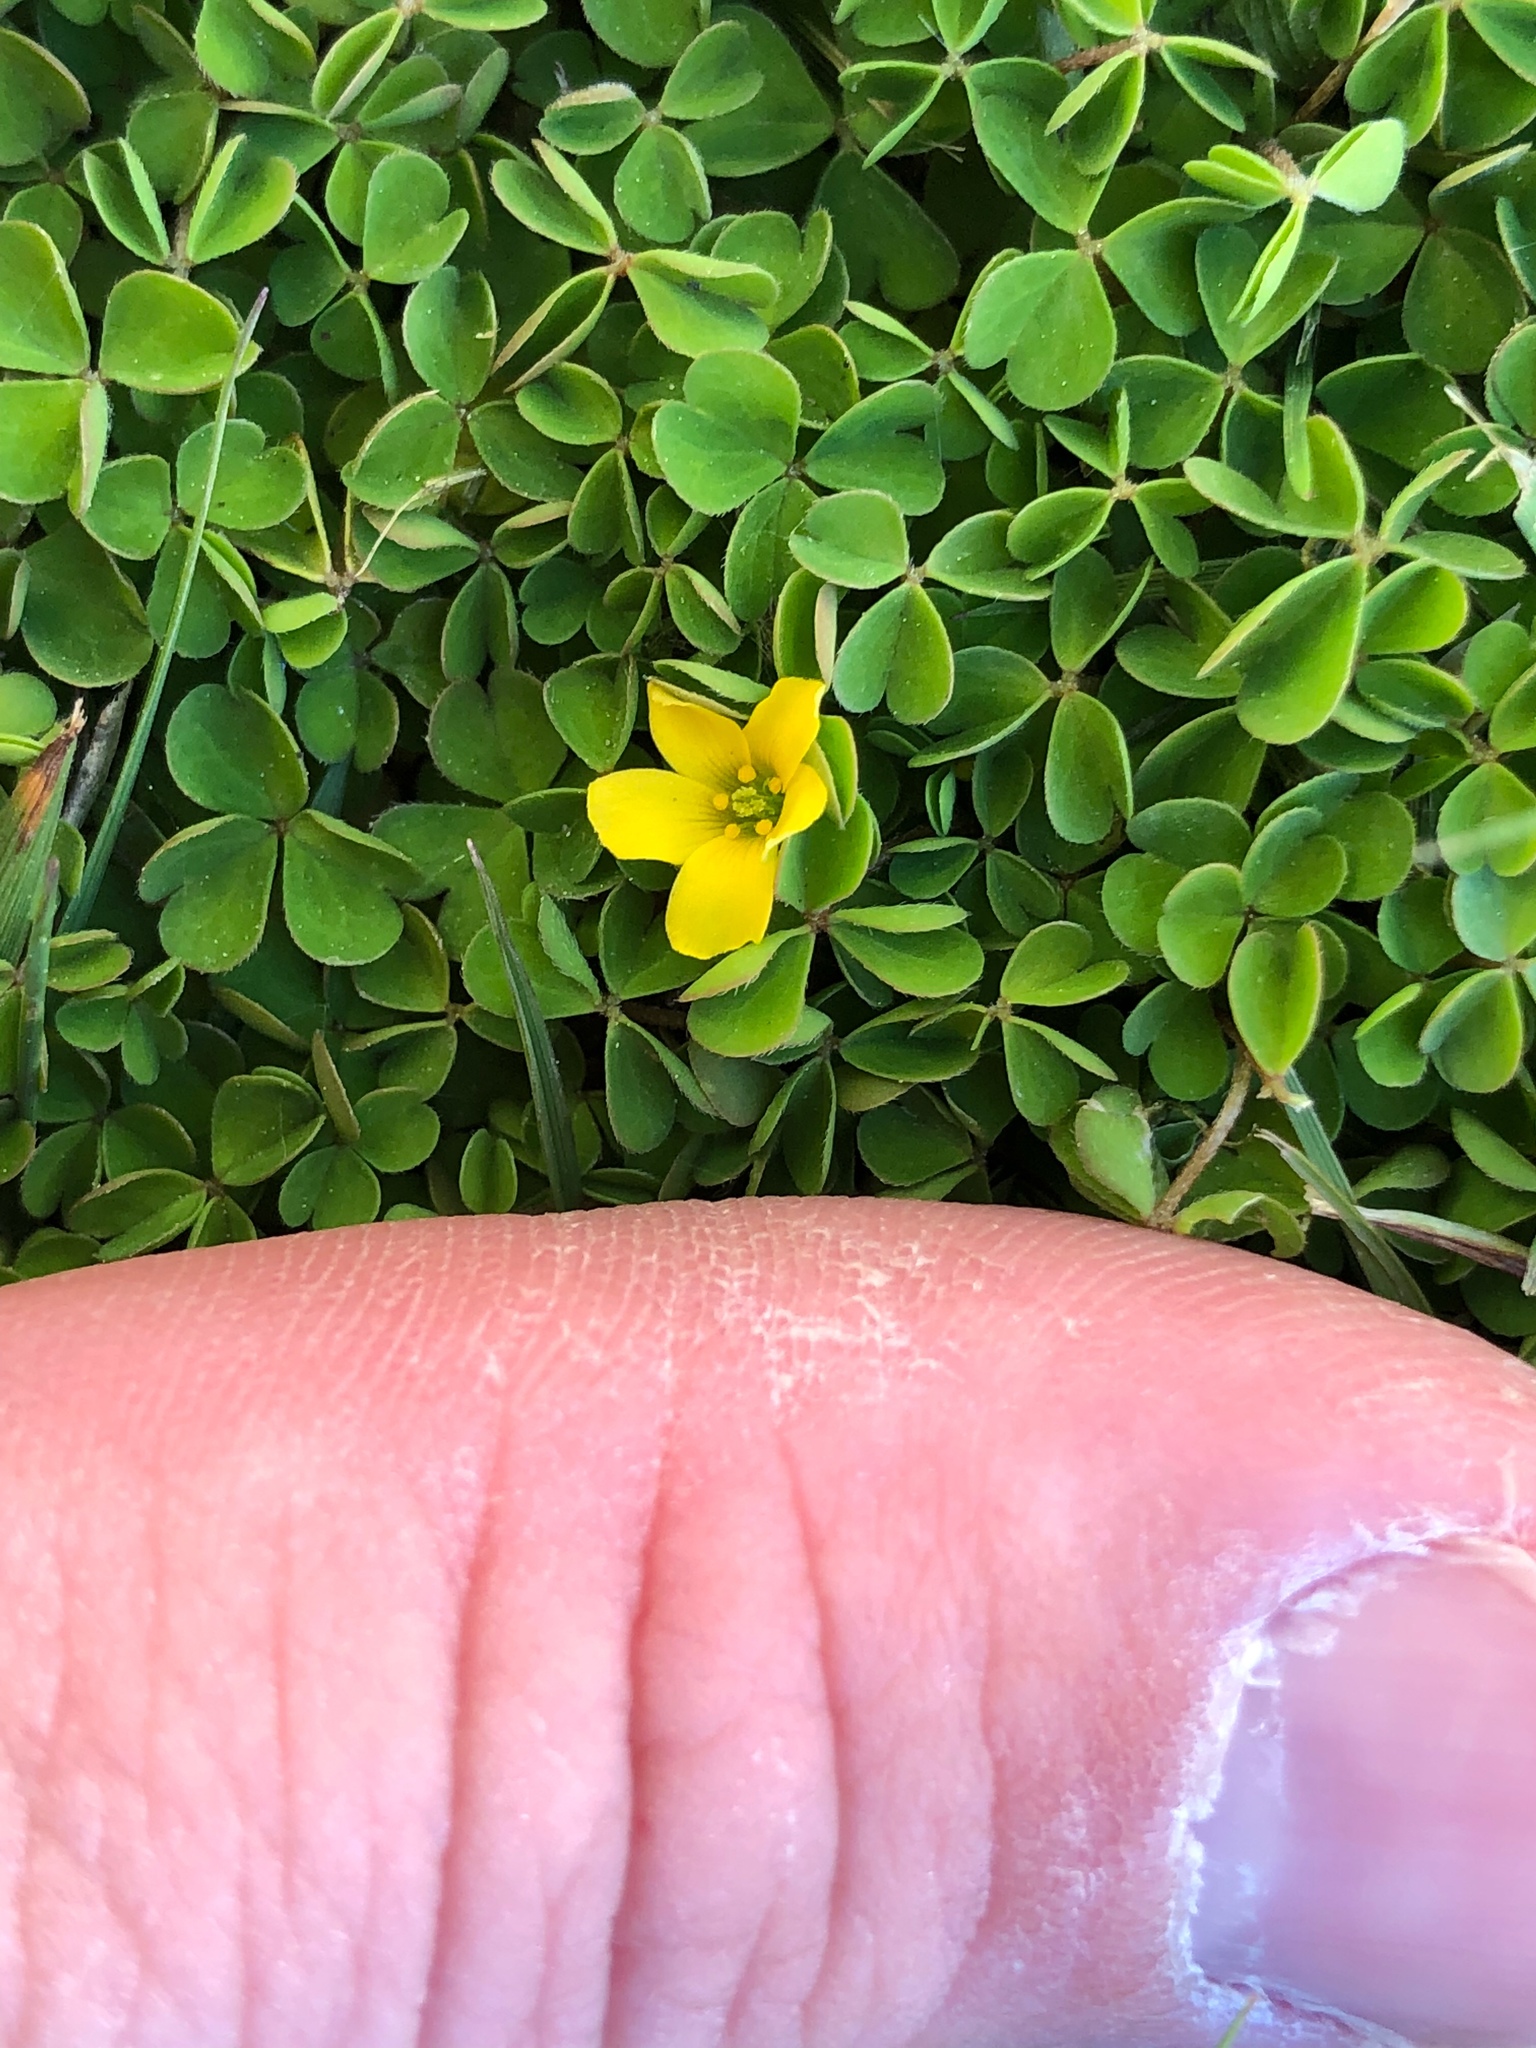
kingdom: Plantae
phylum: Tracheophyta
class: Magnoliopsida
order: Oxalidales
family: Oxalidaceae
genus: Oxalis
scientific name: Oxalis exilis
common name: Least yellow-sorrel
